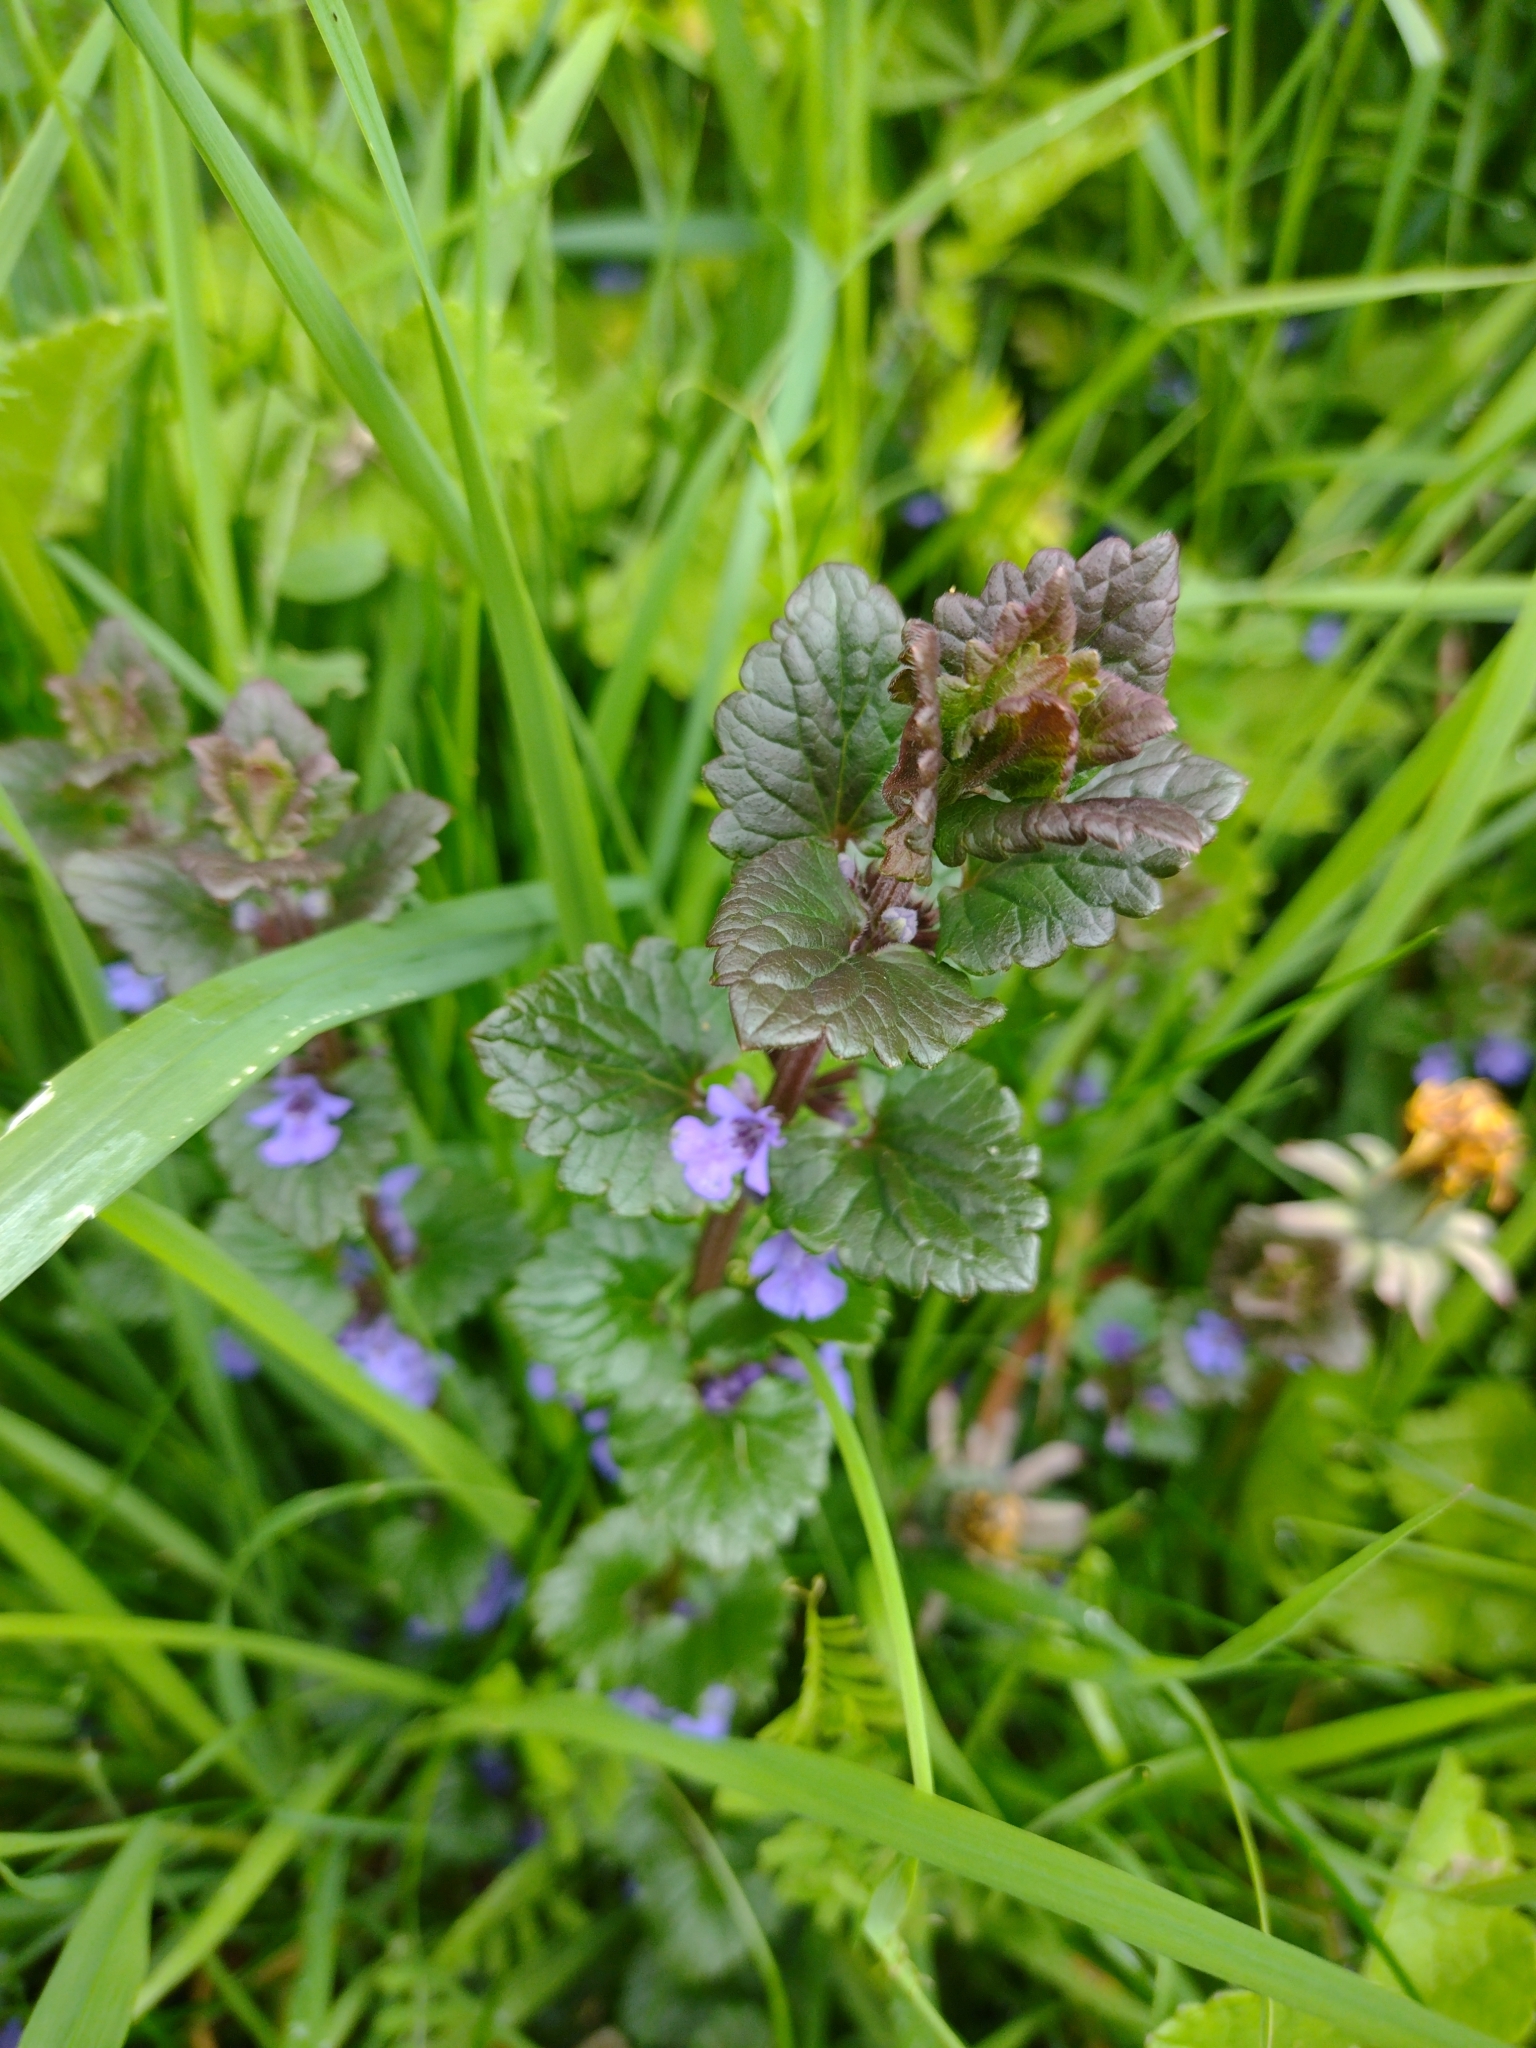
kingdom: Plantae
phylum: Tracheophyta
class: Magnoliopsida
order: Lamiales
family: Lamiaceae
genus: Glechoma
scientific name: Glechoma hederacea
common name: Ground ivy
